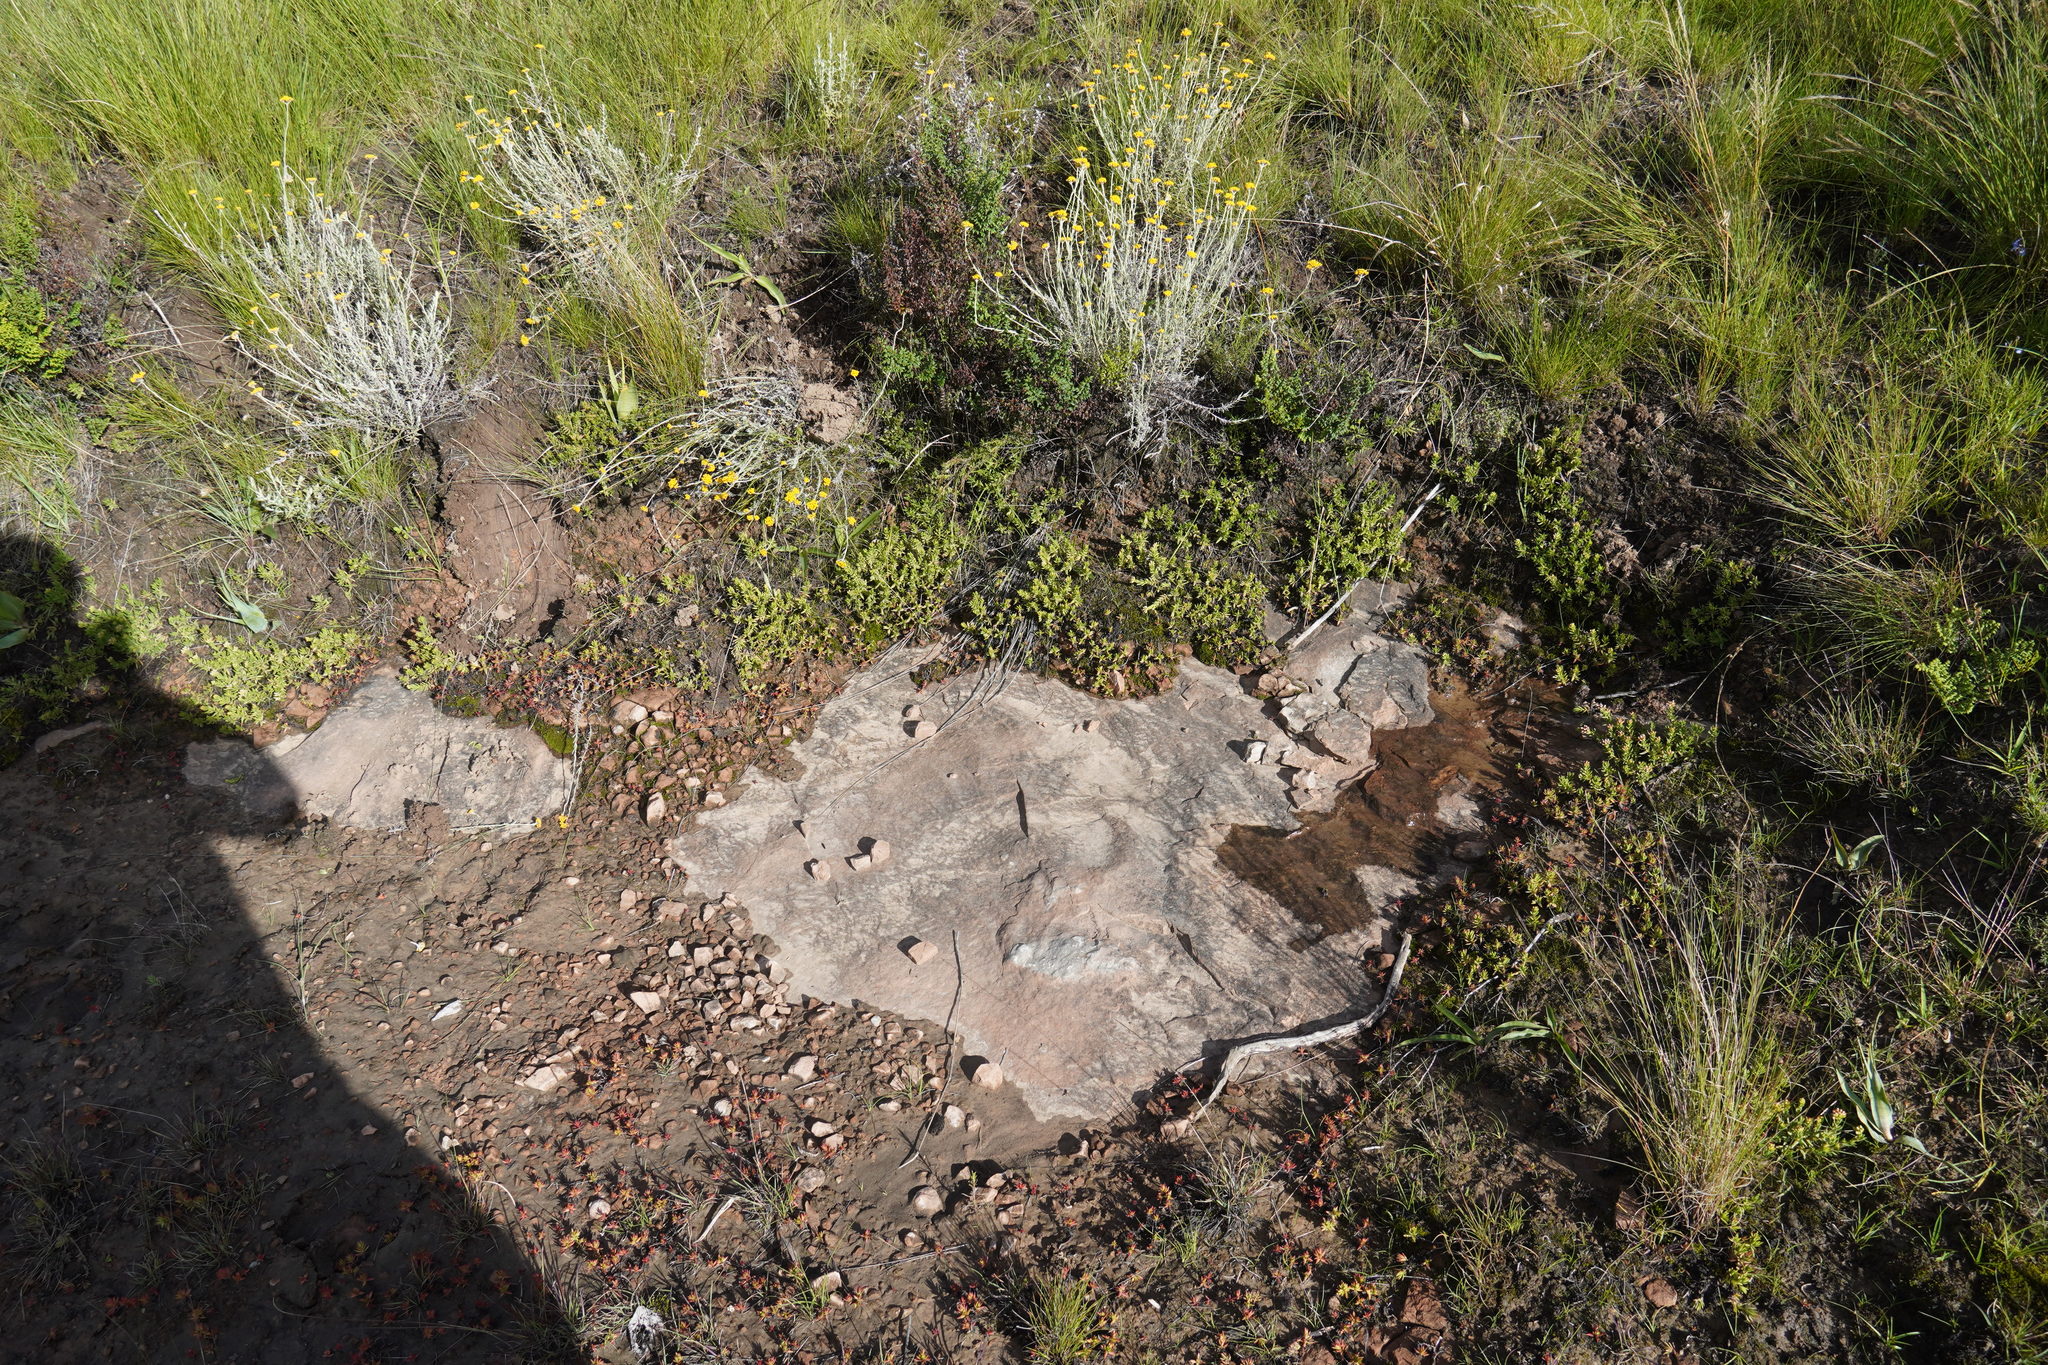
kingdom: Plantae
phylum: Tracheophyta
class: Magnoliopsida
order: Saxifragales
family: Crassulaceae
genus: Crassula
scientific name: Crassula dependens
